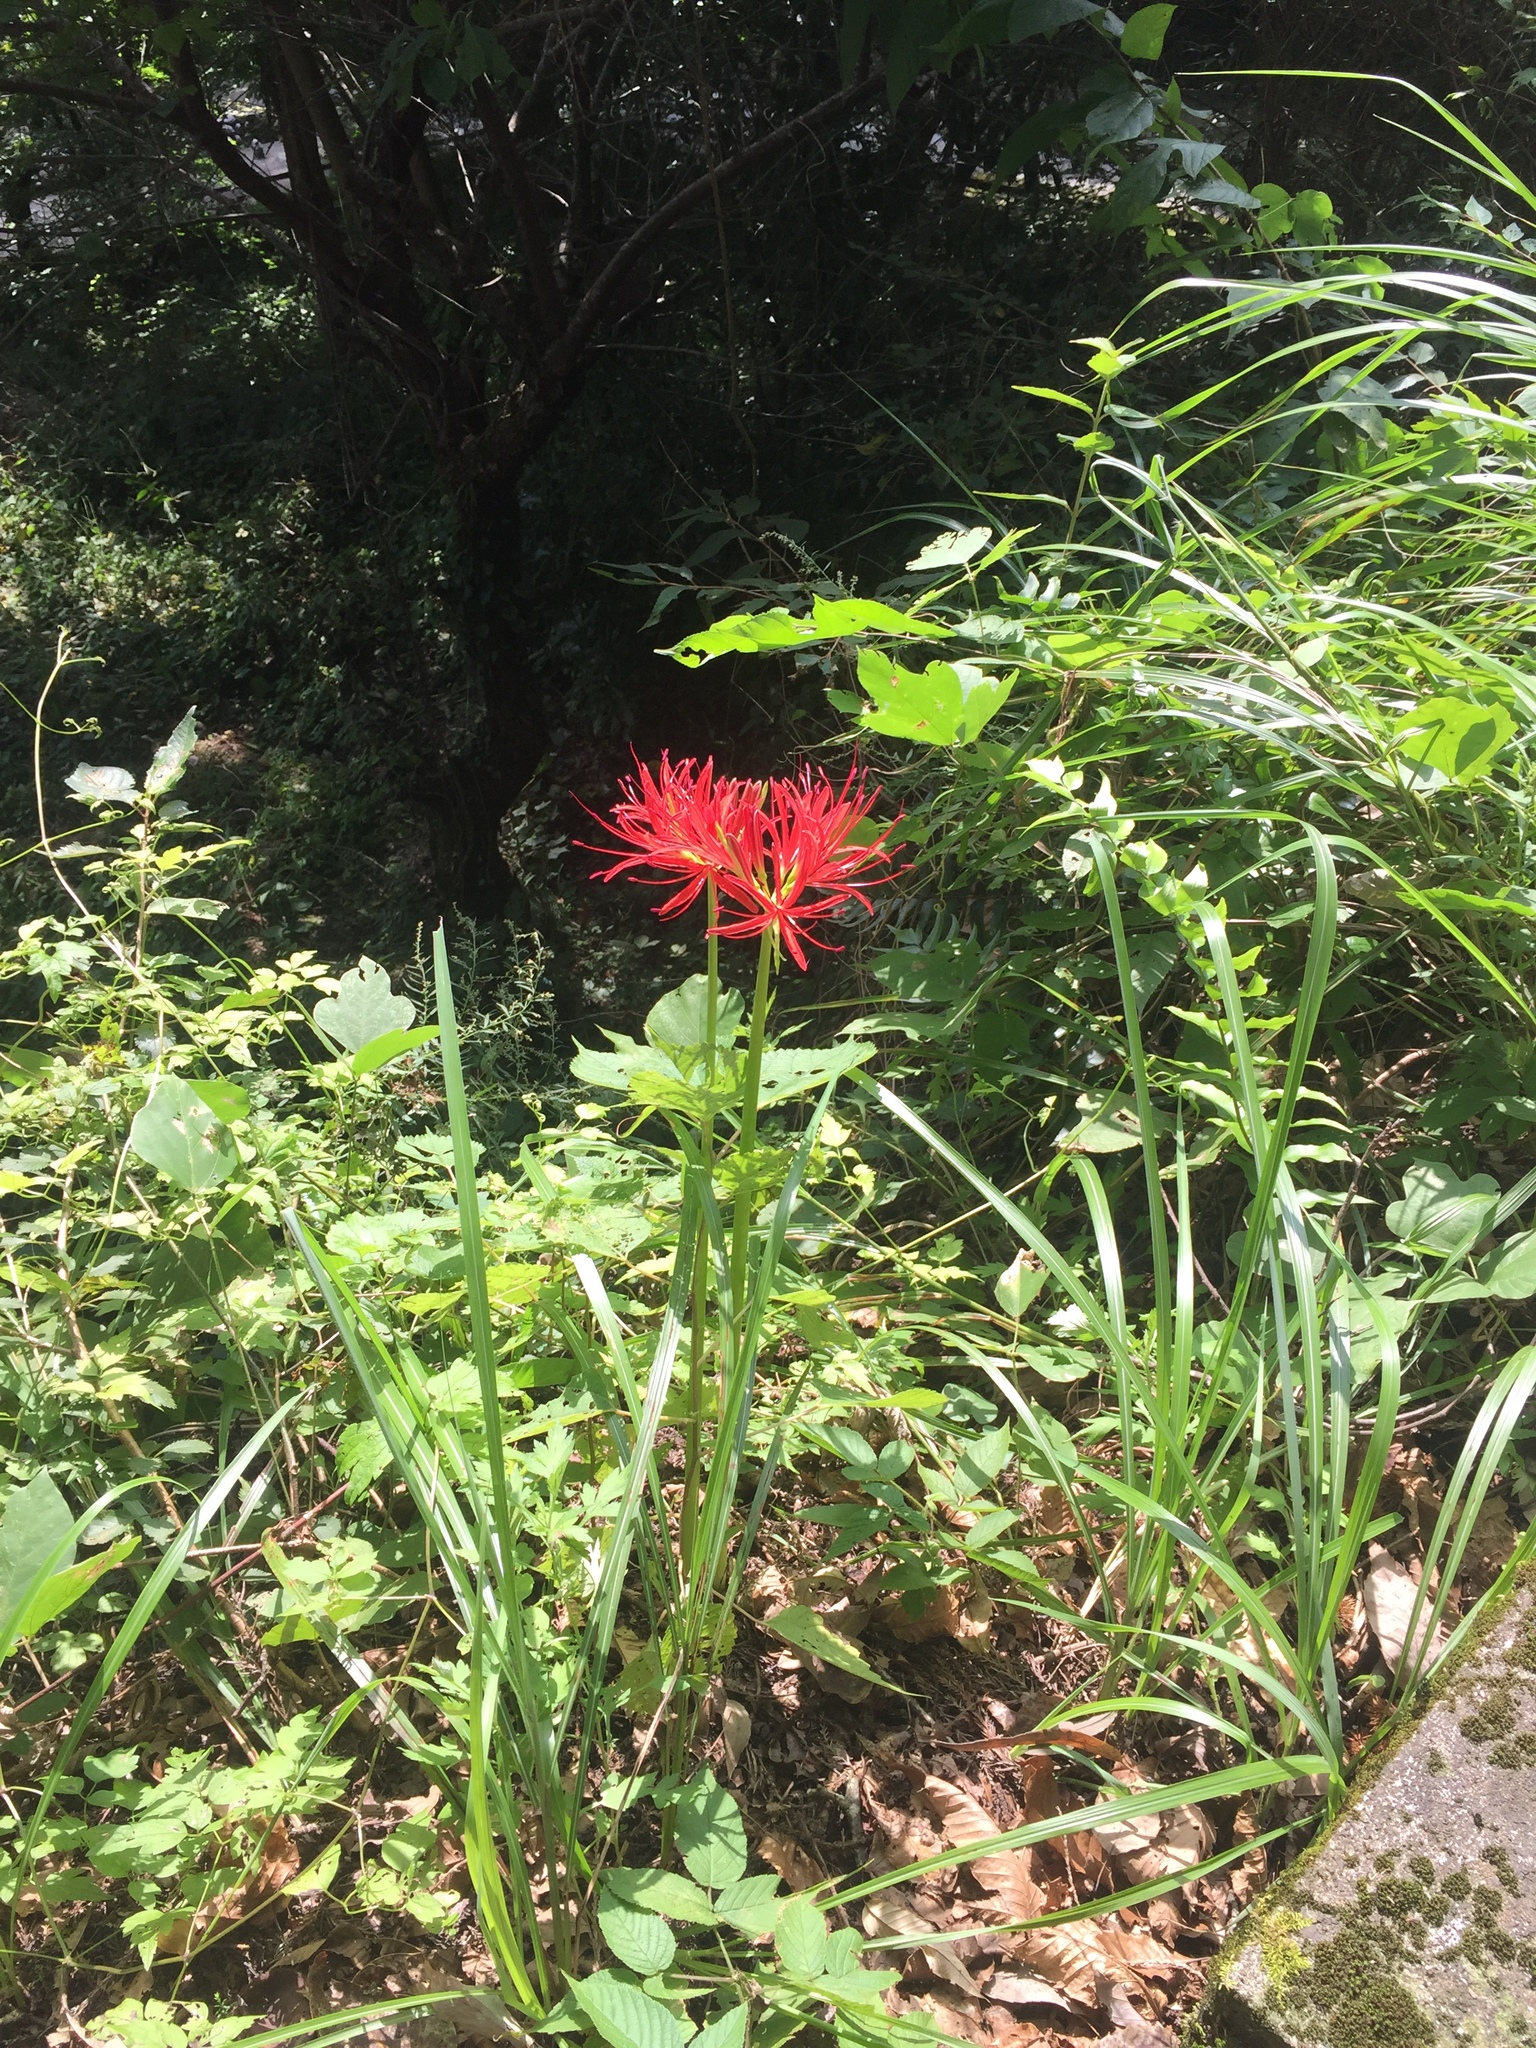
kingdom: Plantae
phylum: Tracheophyta
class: Liliopsida
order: Asparagales
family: Amaryllidaceae
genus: Lycoris
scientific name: Lycoris radiata
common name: Red spider lily
